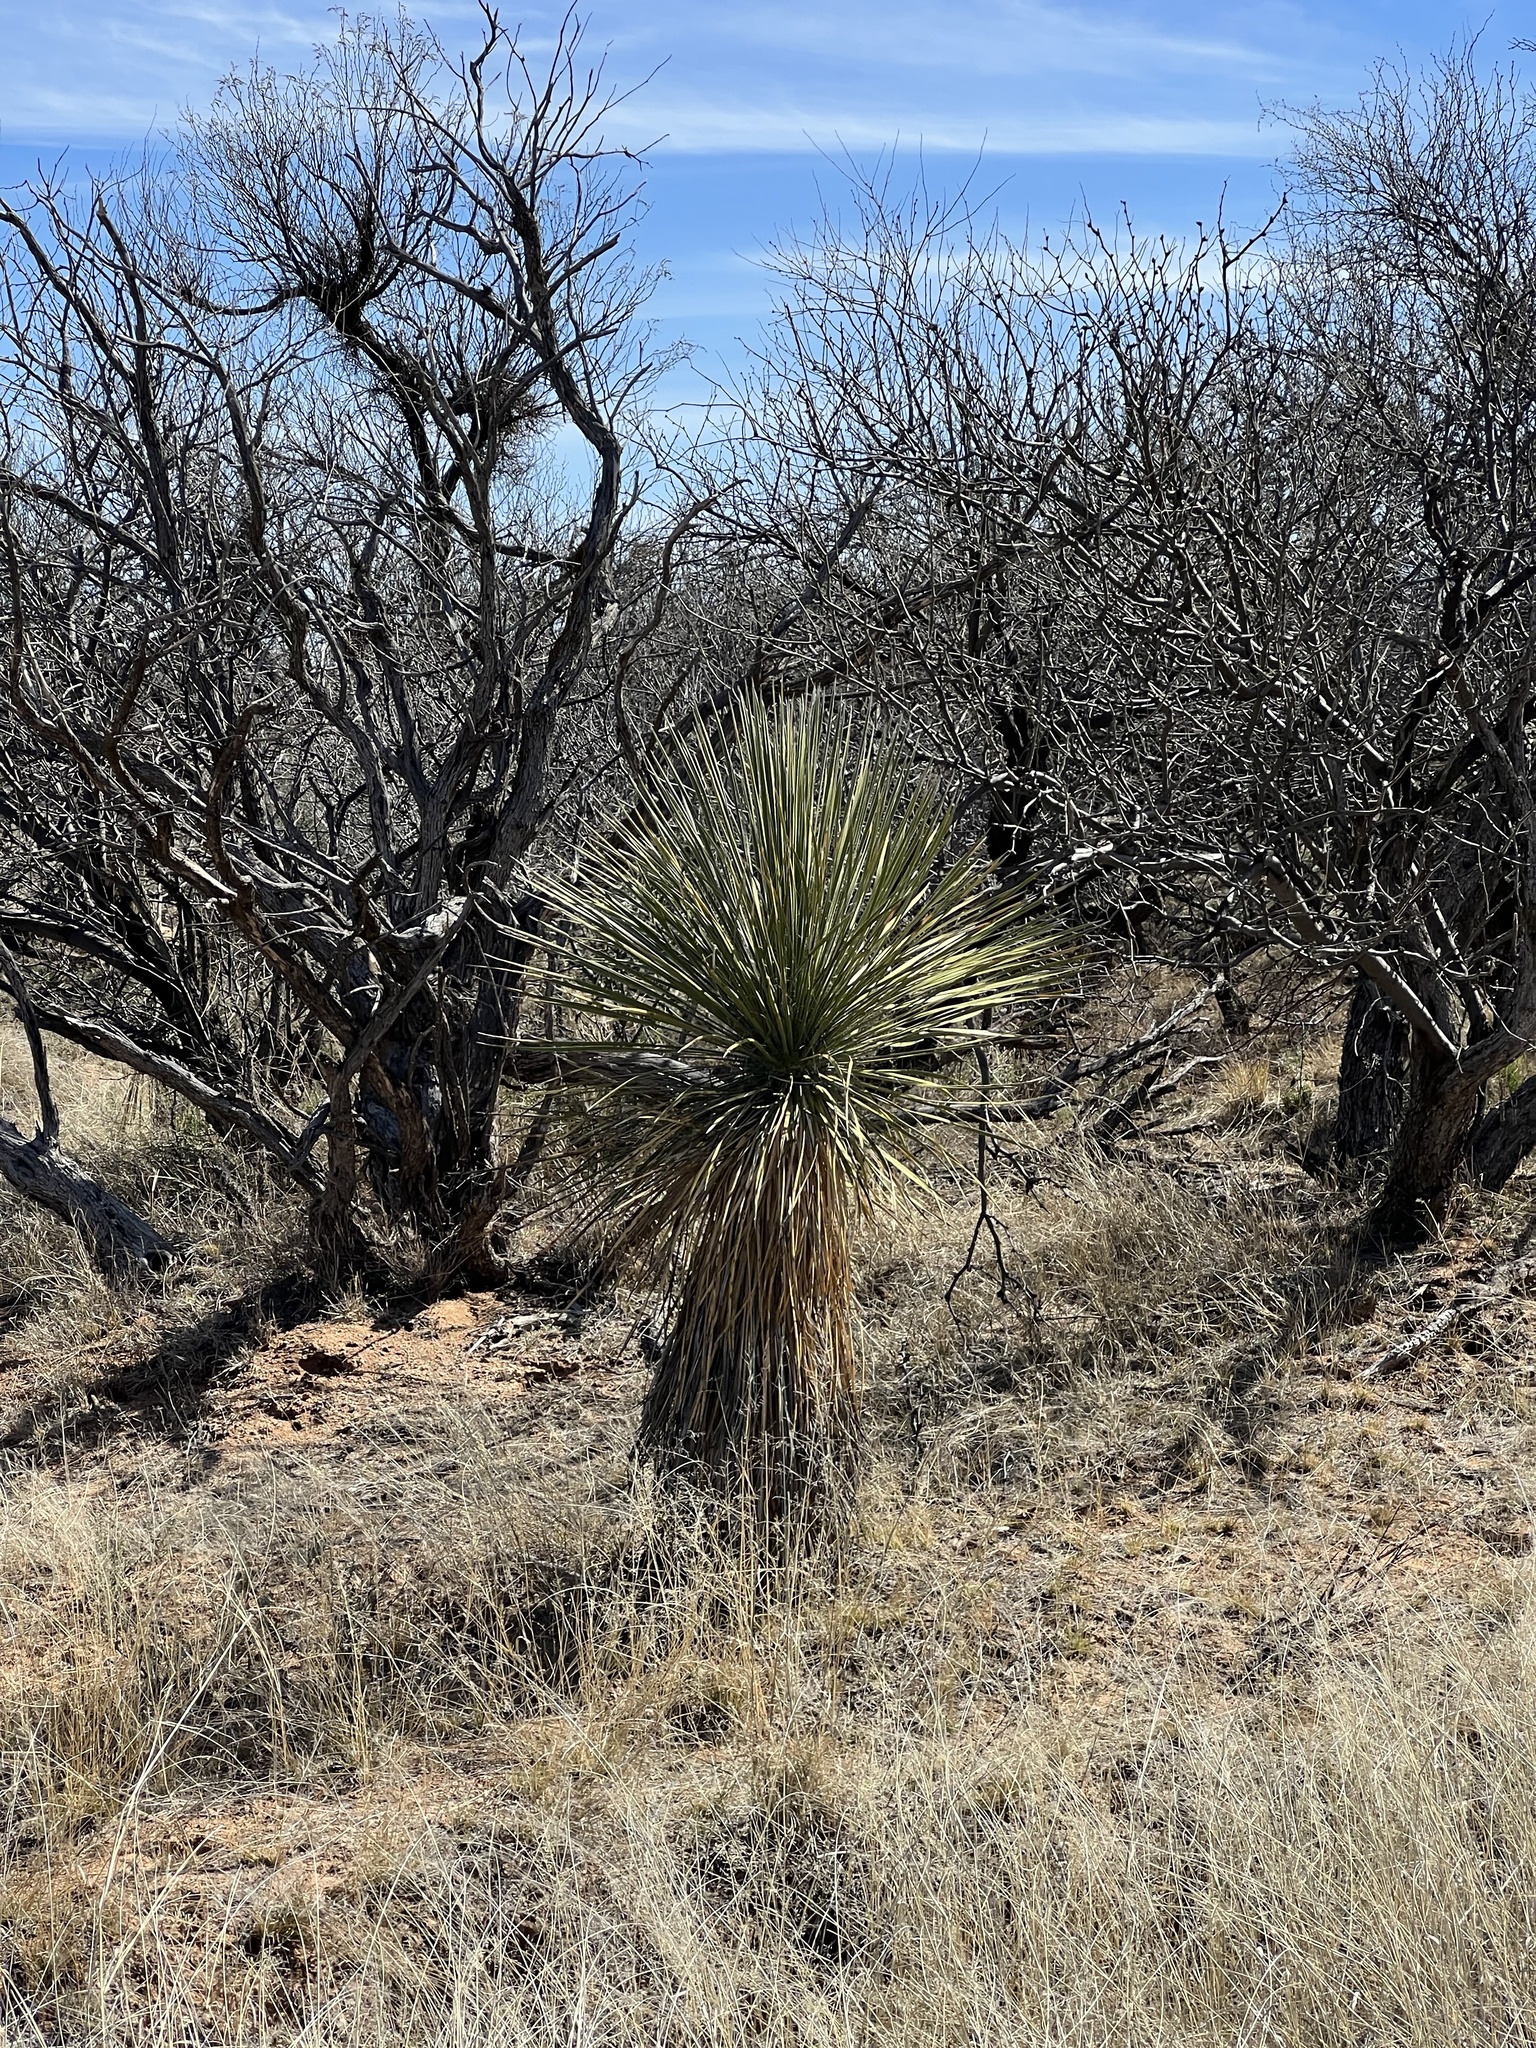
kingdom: Plantae
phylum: Tracheophyta
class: Liliopsida
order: Asparagales
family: Asparagaceae
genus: Yucca
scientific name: Yucca elata
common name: Palmella
